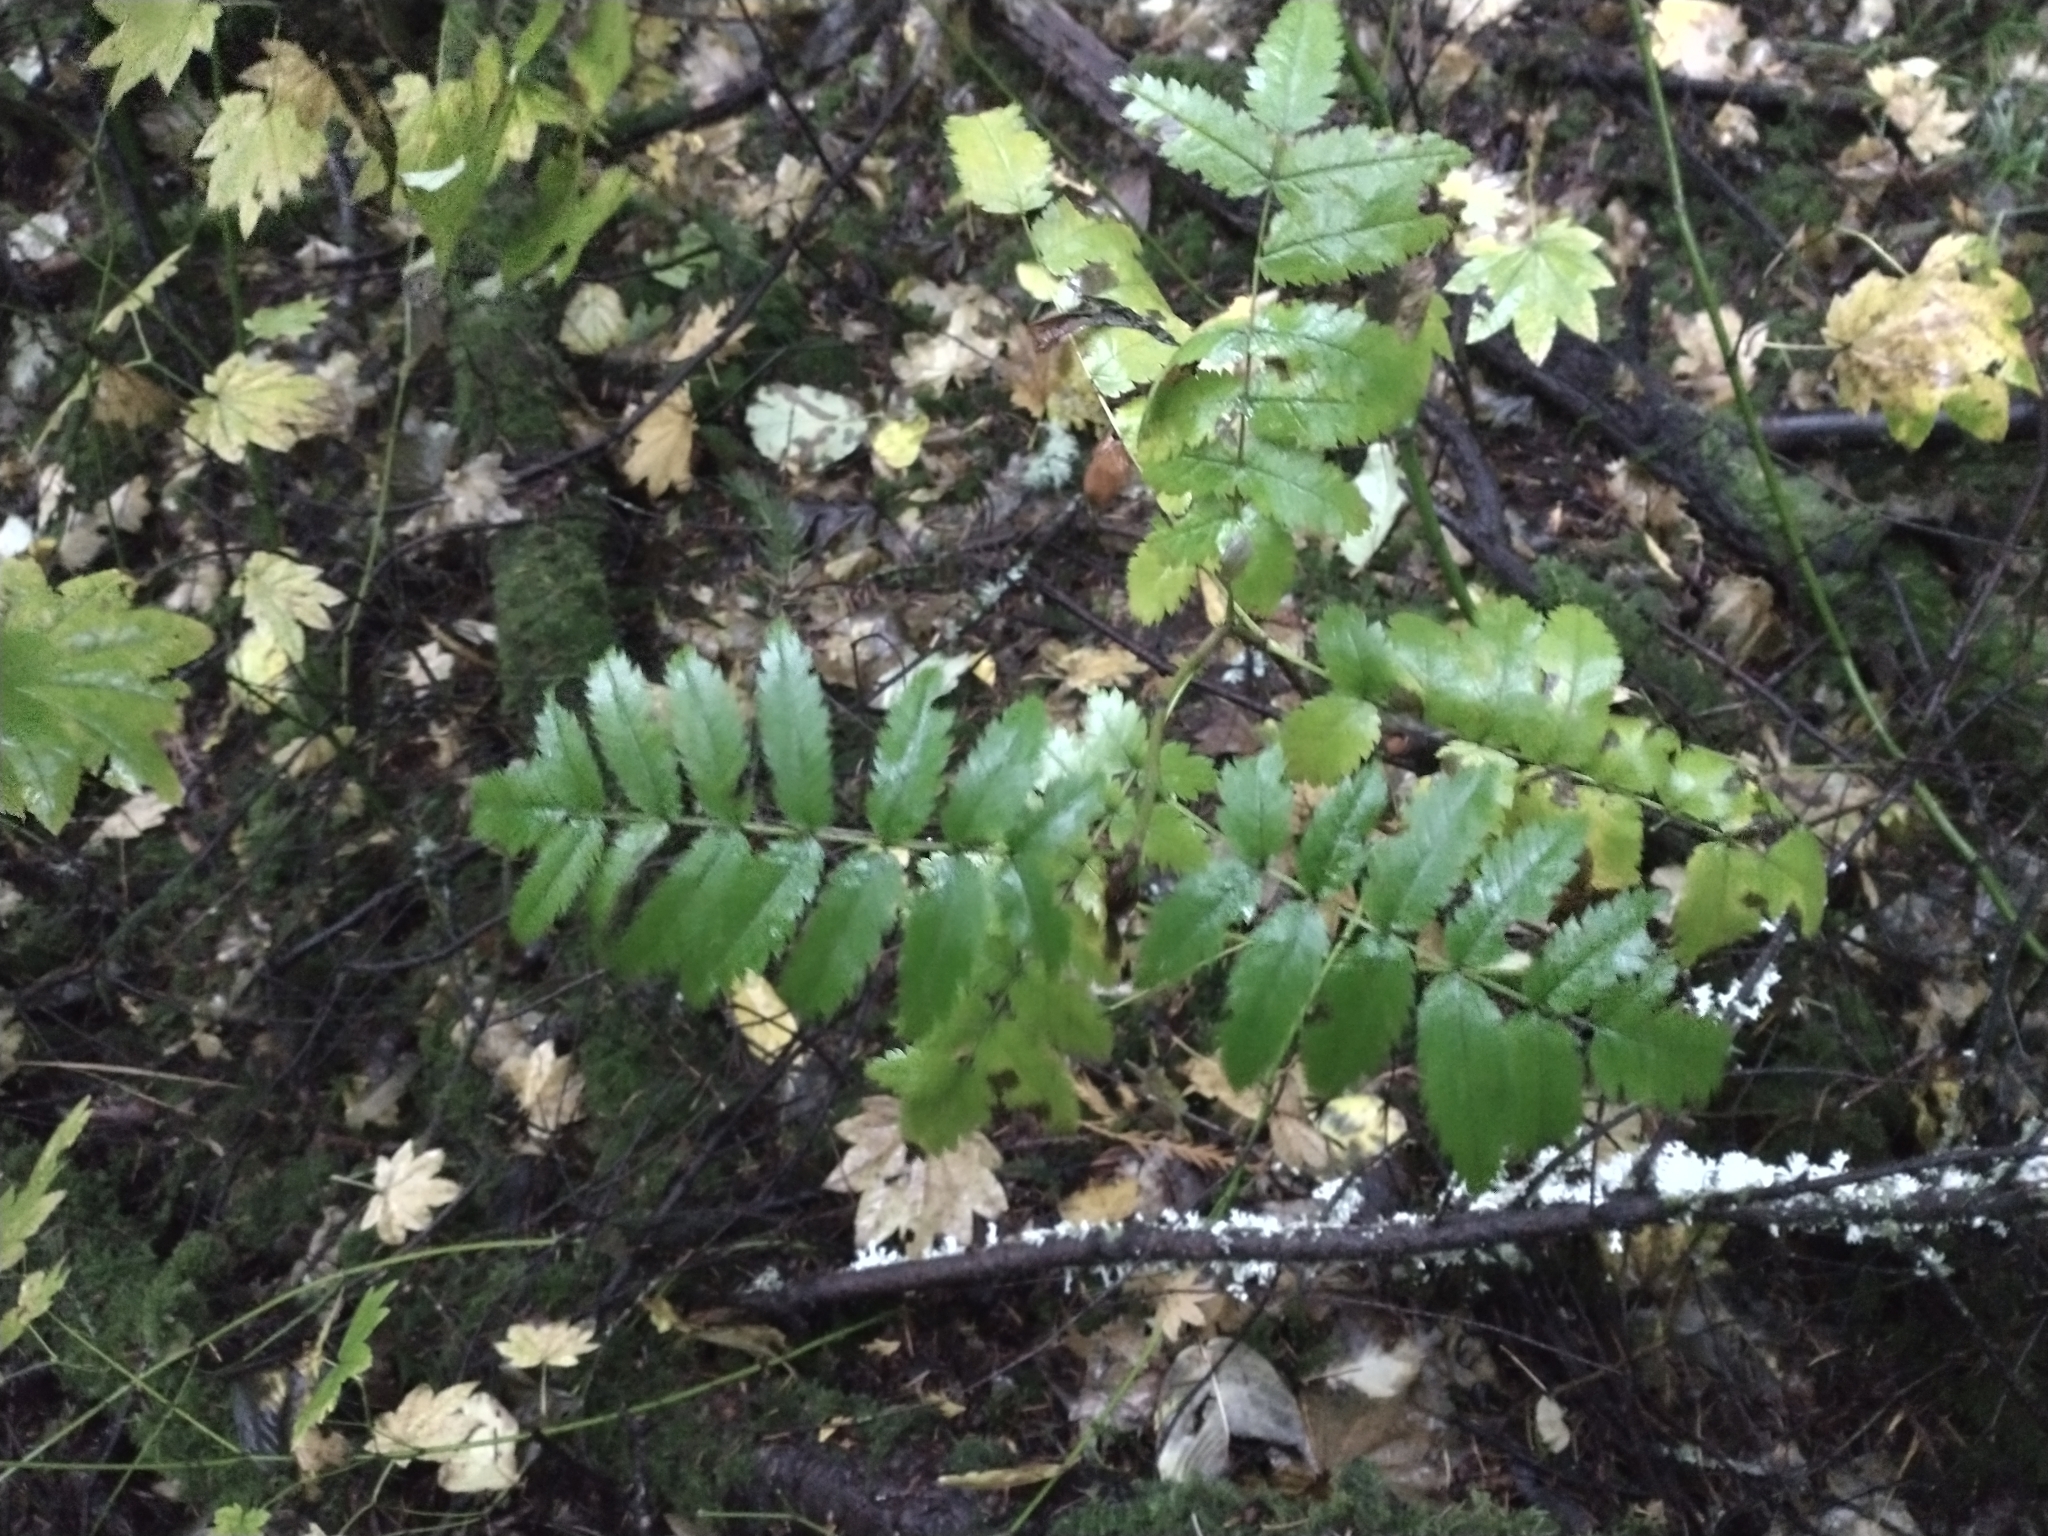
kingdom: Plantae
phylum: Tracheophyta
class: Magnoliopsida
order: Rosales
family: Rosaceae
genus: Sorbus
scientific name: Sorbus aucuparia
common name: Rowan
